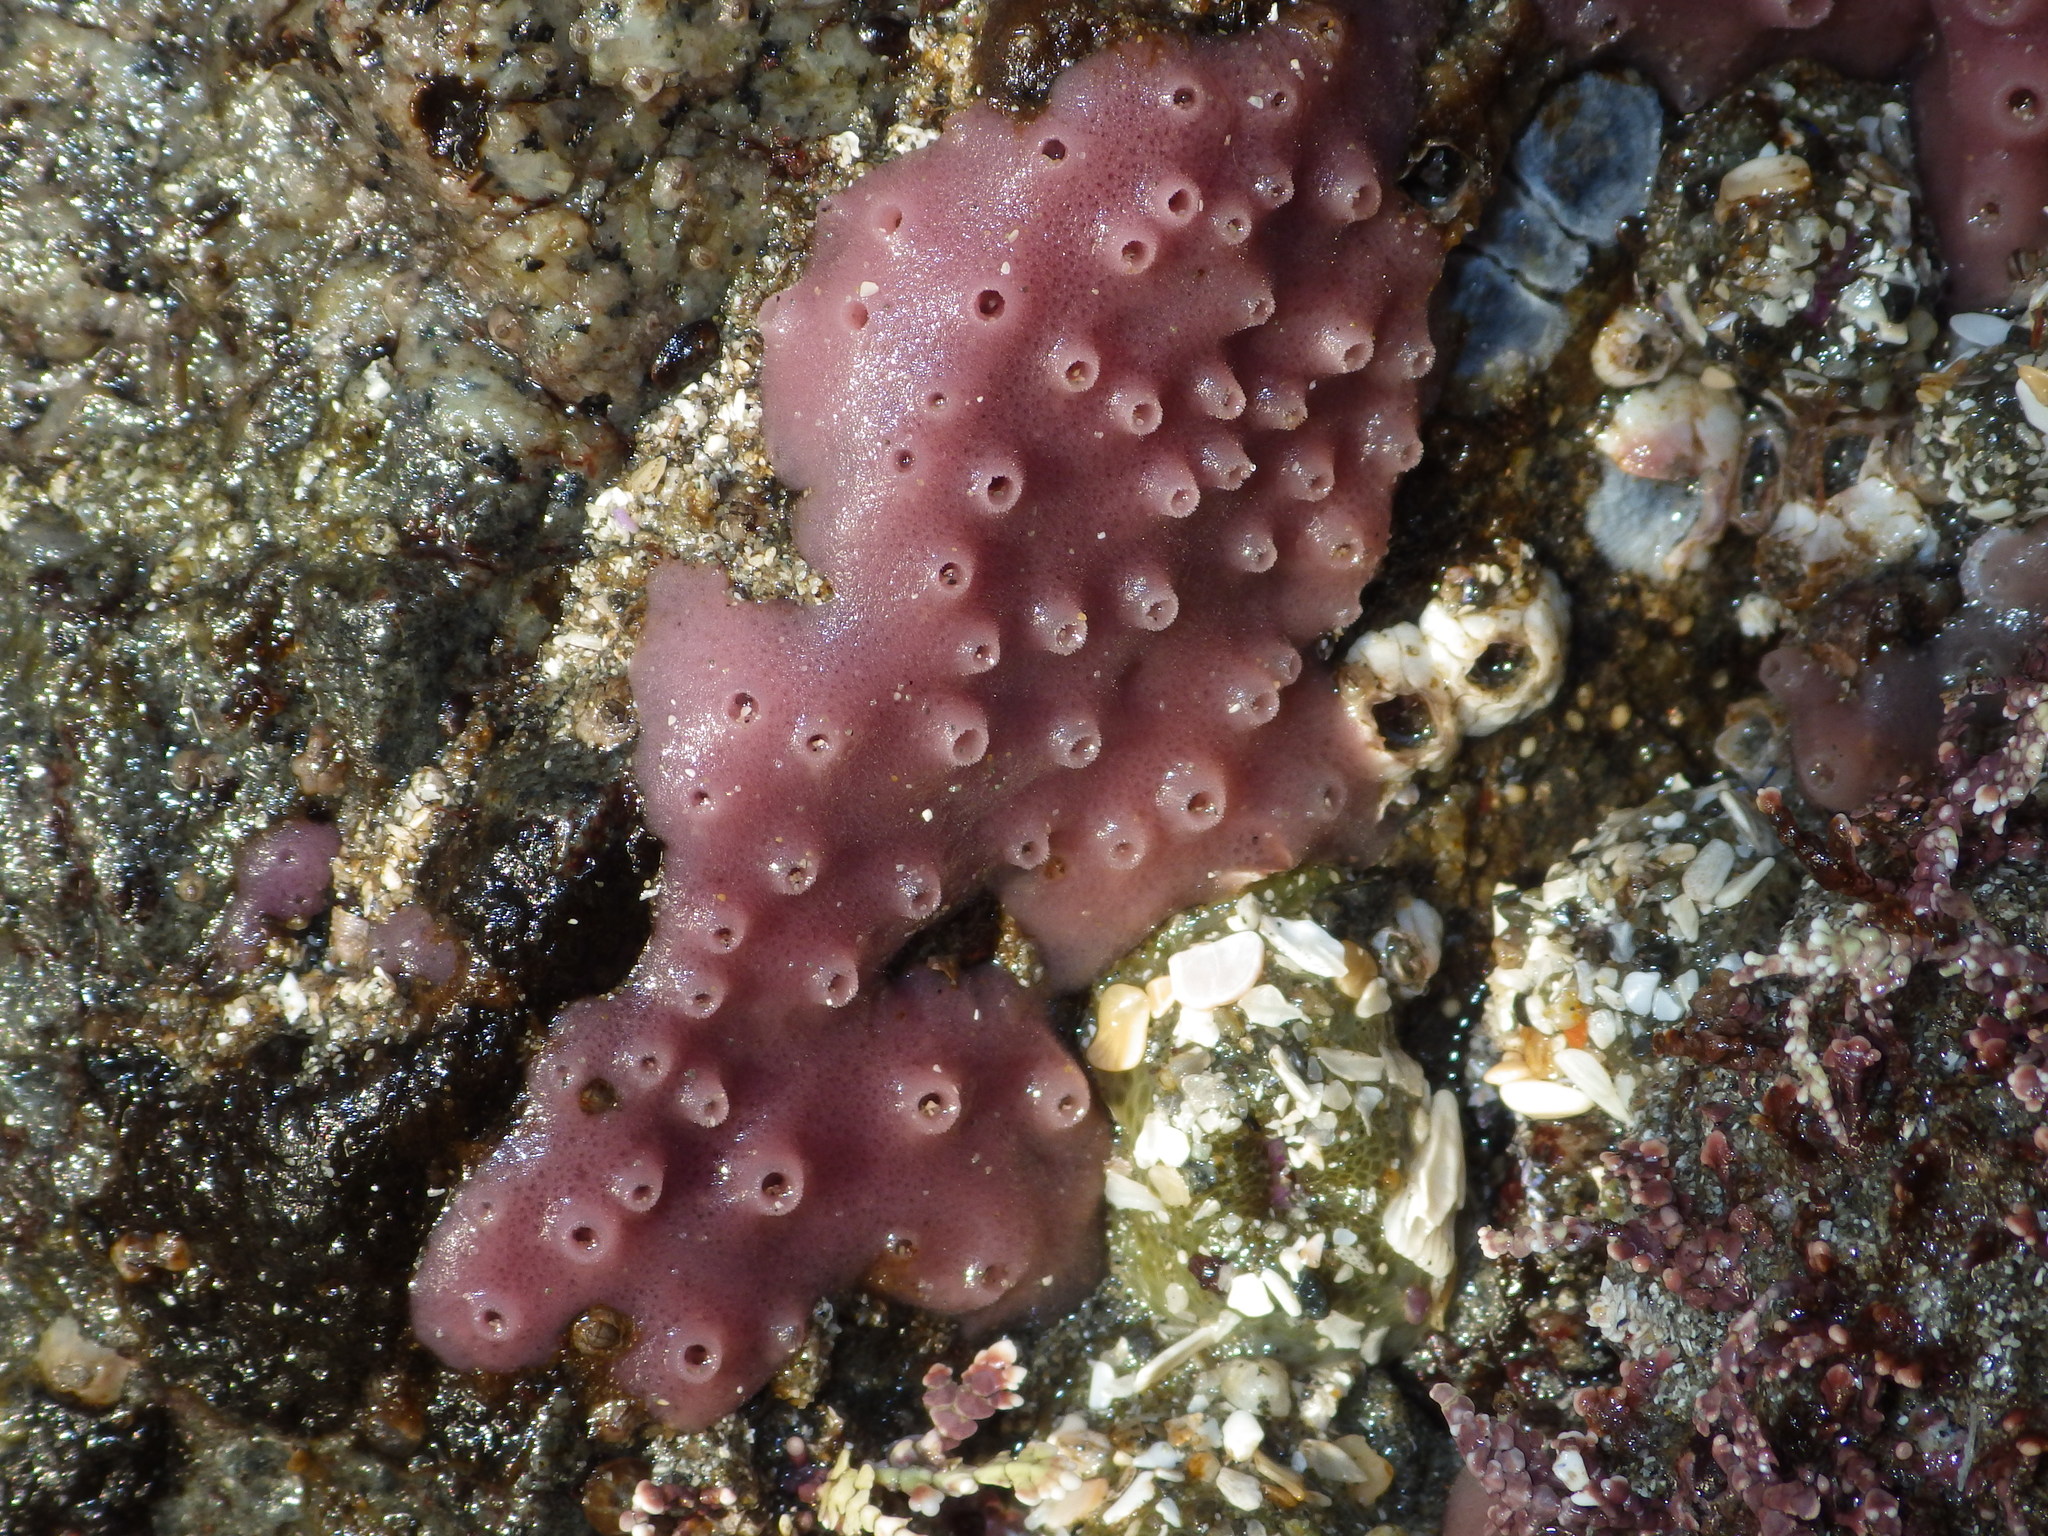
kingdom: Animalia
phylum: Porifera
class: Demospongiae
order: Haplosclerida
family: Chalinidae
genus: Haliclona
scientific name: Haliclona
